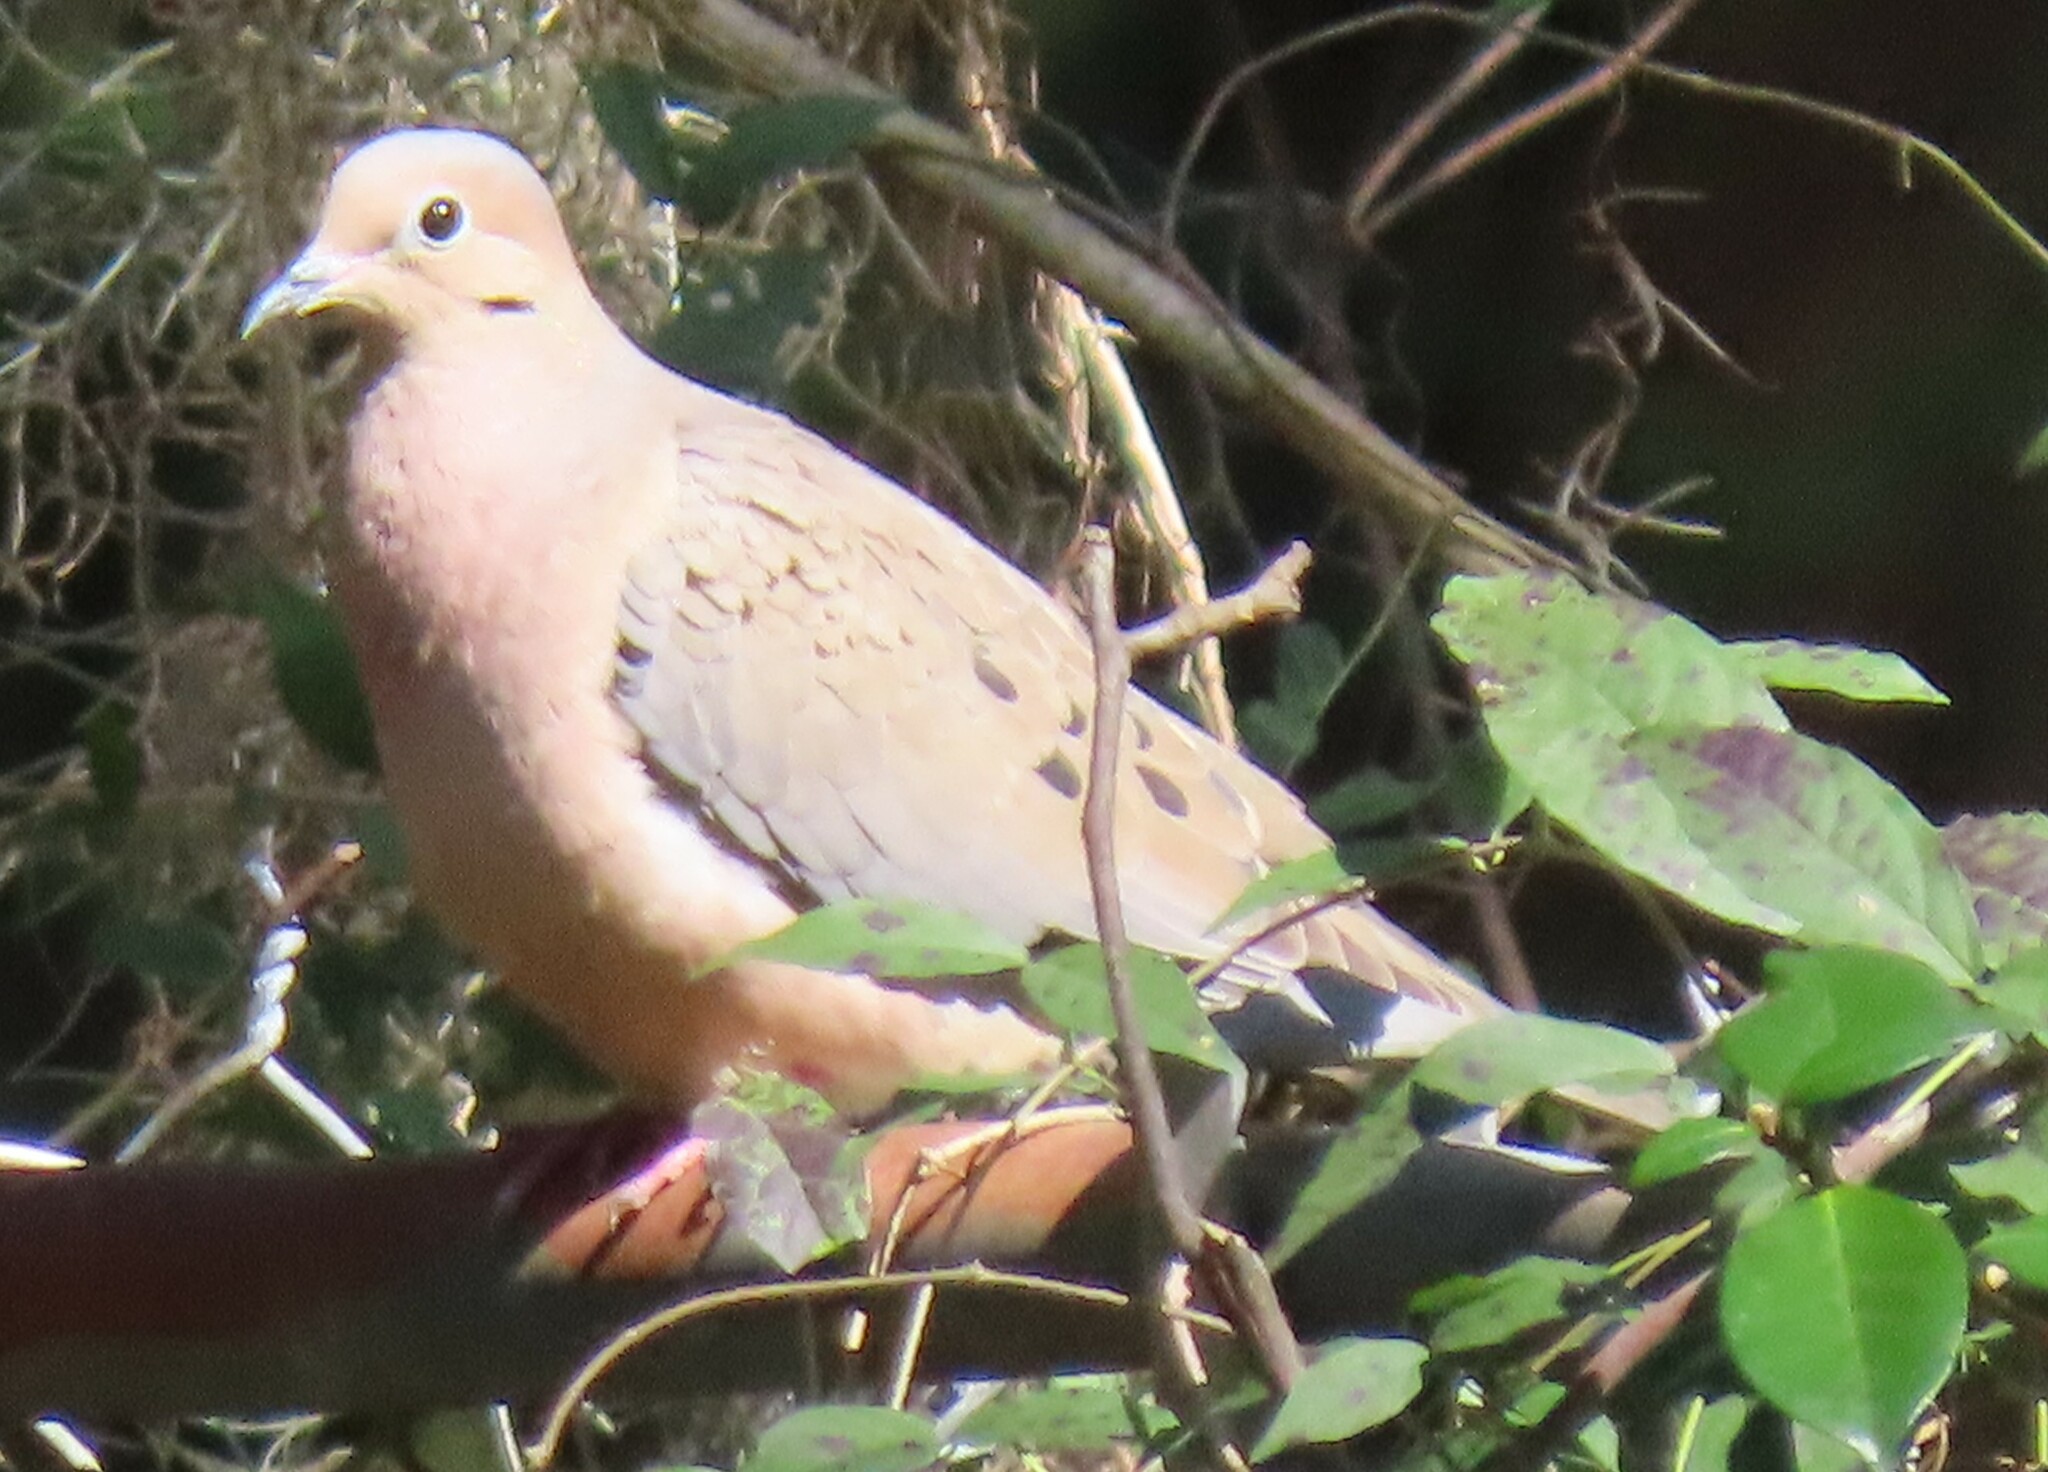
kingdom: Animalia
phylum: Chordata
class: Aves
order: Columbiformes
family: Columbidae
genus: Zenaida
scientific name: Zenaida macroura
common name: Mourning dove
